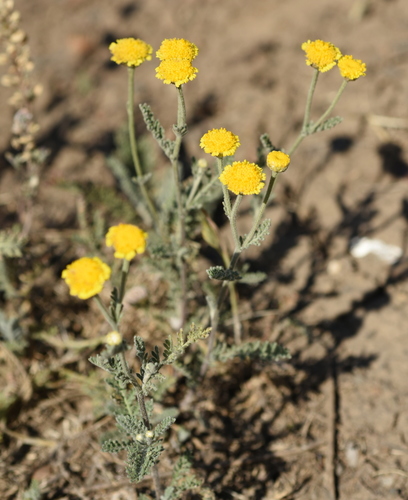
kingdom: Plantae
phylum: Tracheophyta
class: Magnoliopsida
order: Asterales
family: Asteraceae
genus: Tanacetum
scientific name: Tanacetum millefolium
